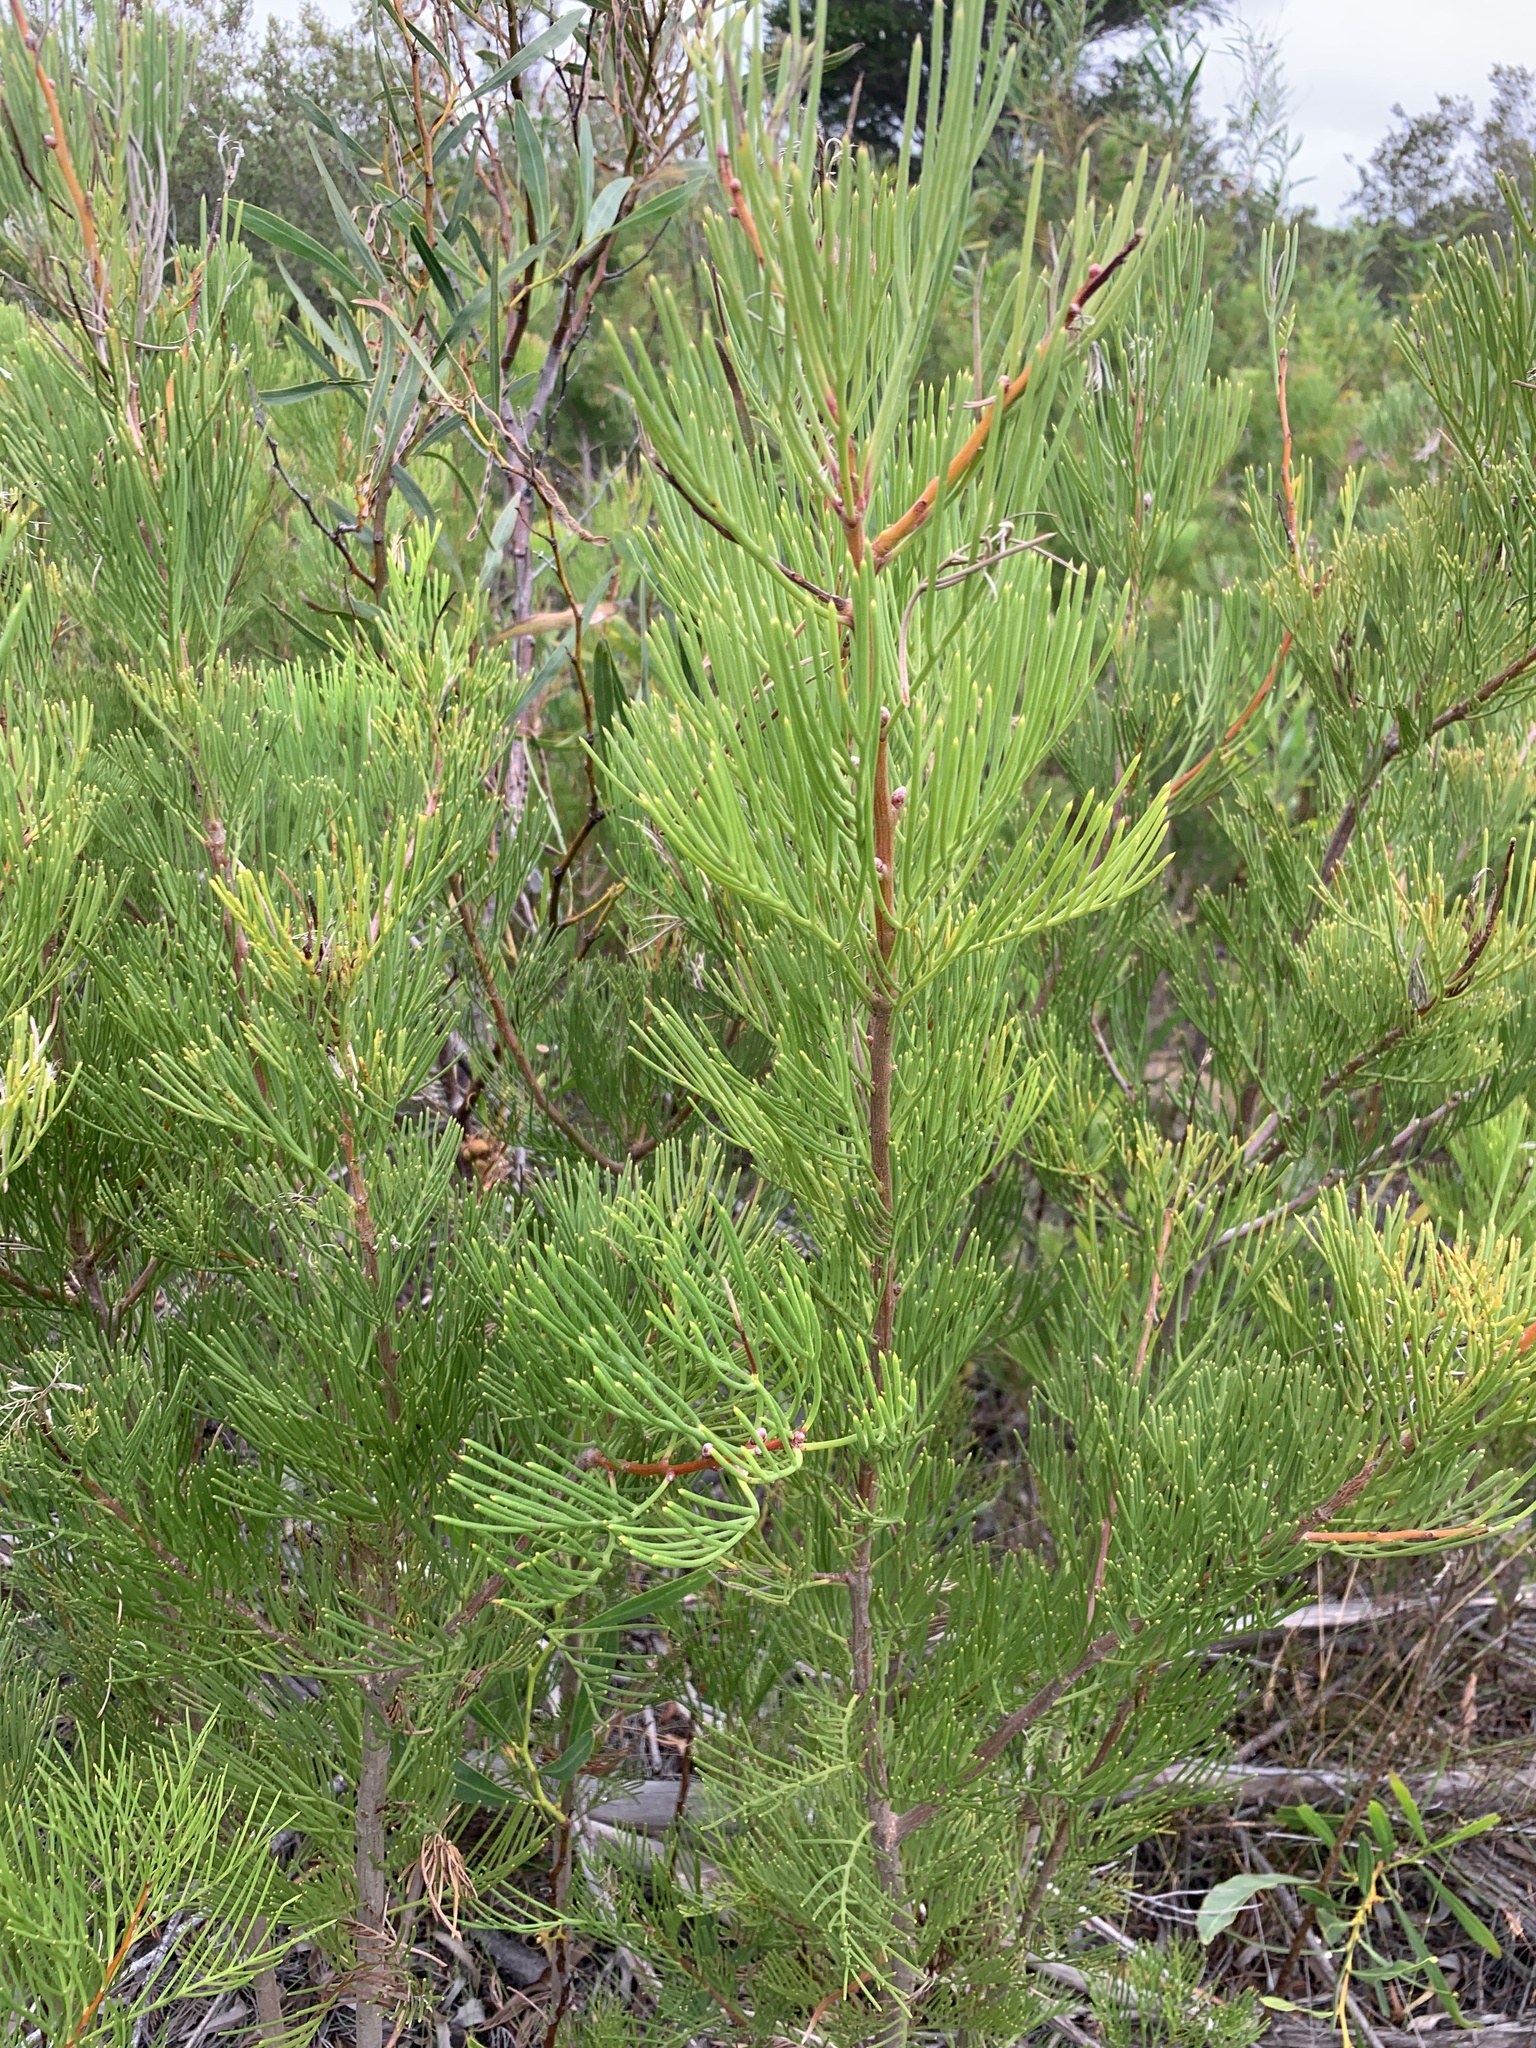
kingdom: Plantae
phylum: Tracheophyta
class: Magnoliopsida
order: Proteales
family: Proteaceae
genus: Hakea
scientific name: Hakea drupacea
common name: Sweet hakea
